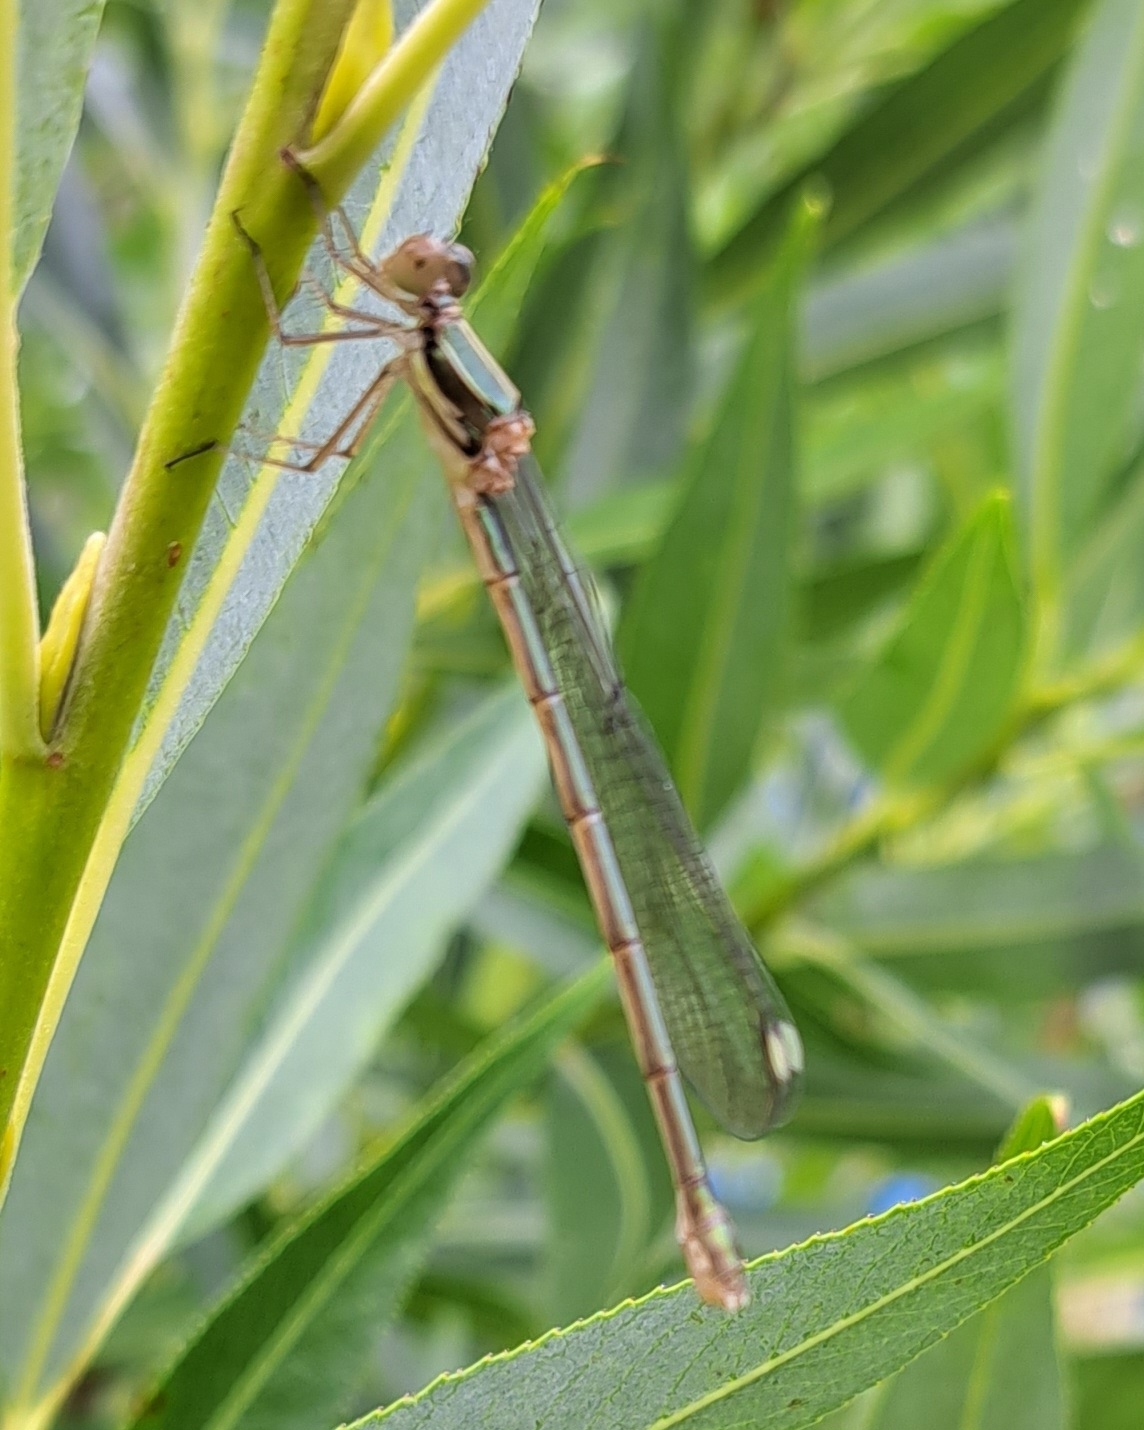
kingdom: Animalia
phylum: Arthropoda
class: Insecta
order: Odonata
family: Lestidae
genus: Chalcolestes
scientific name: Chalcolestes viridis
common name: Green emerald damselfly
